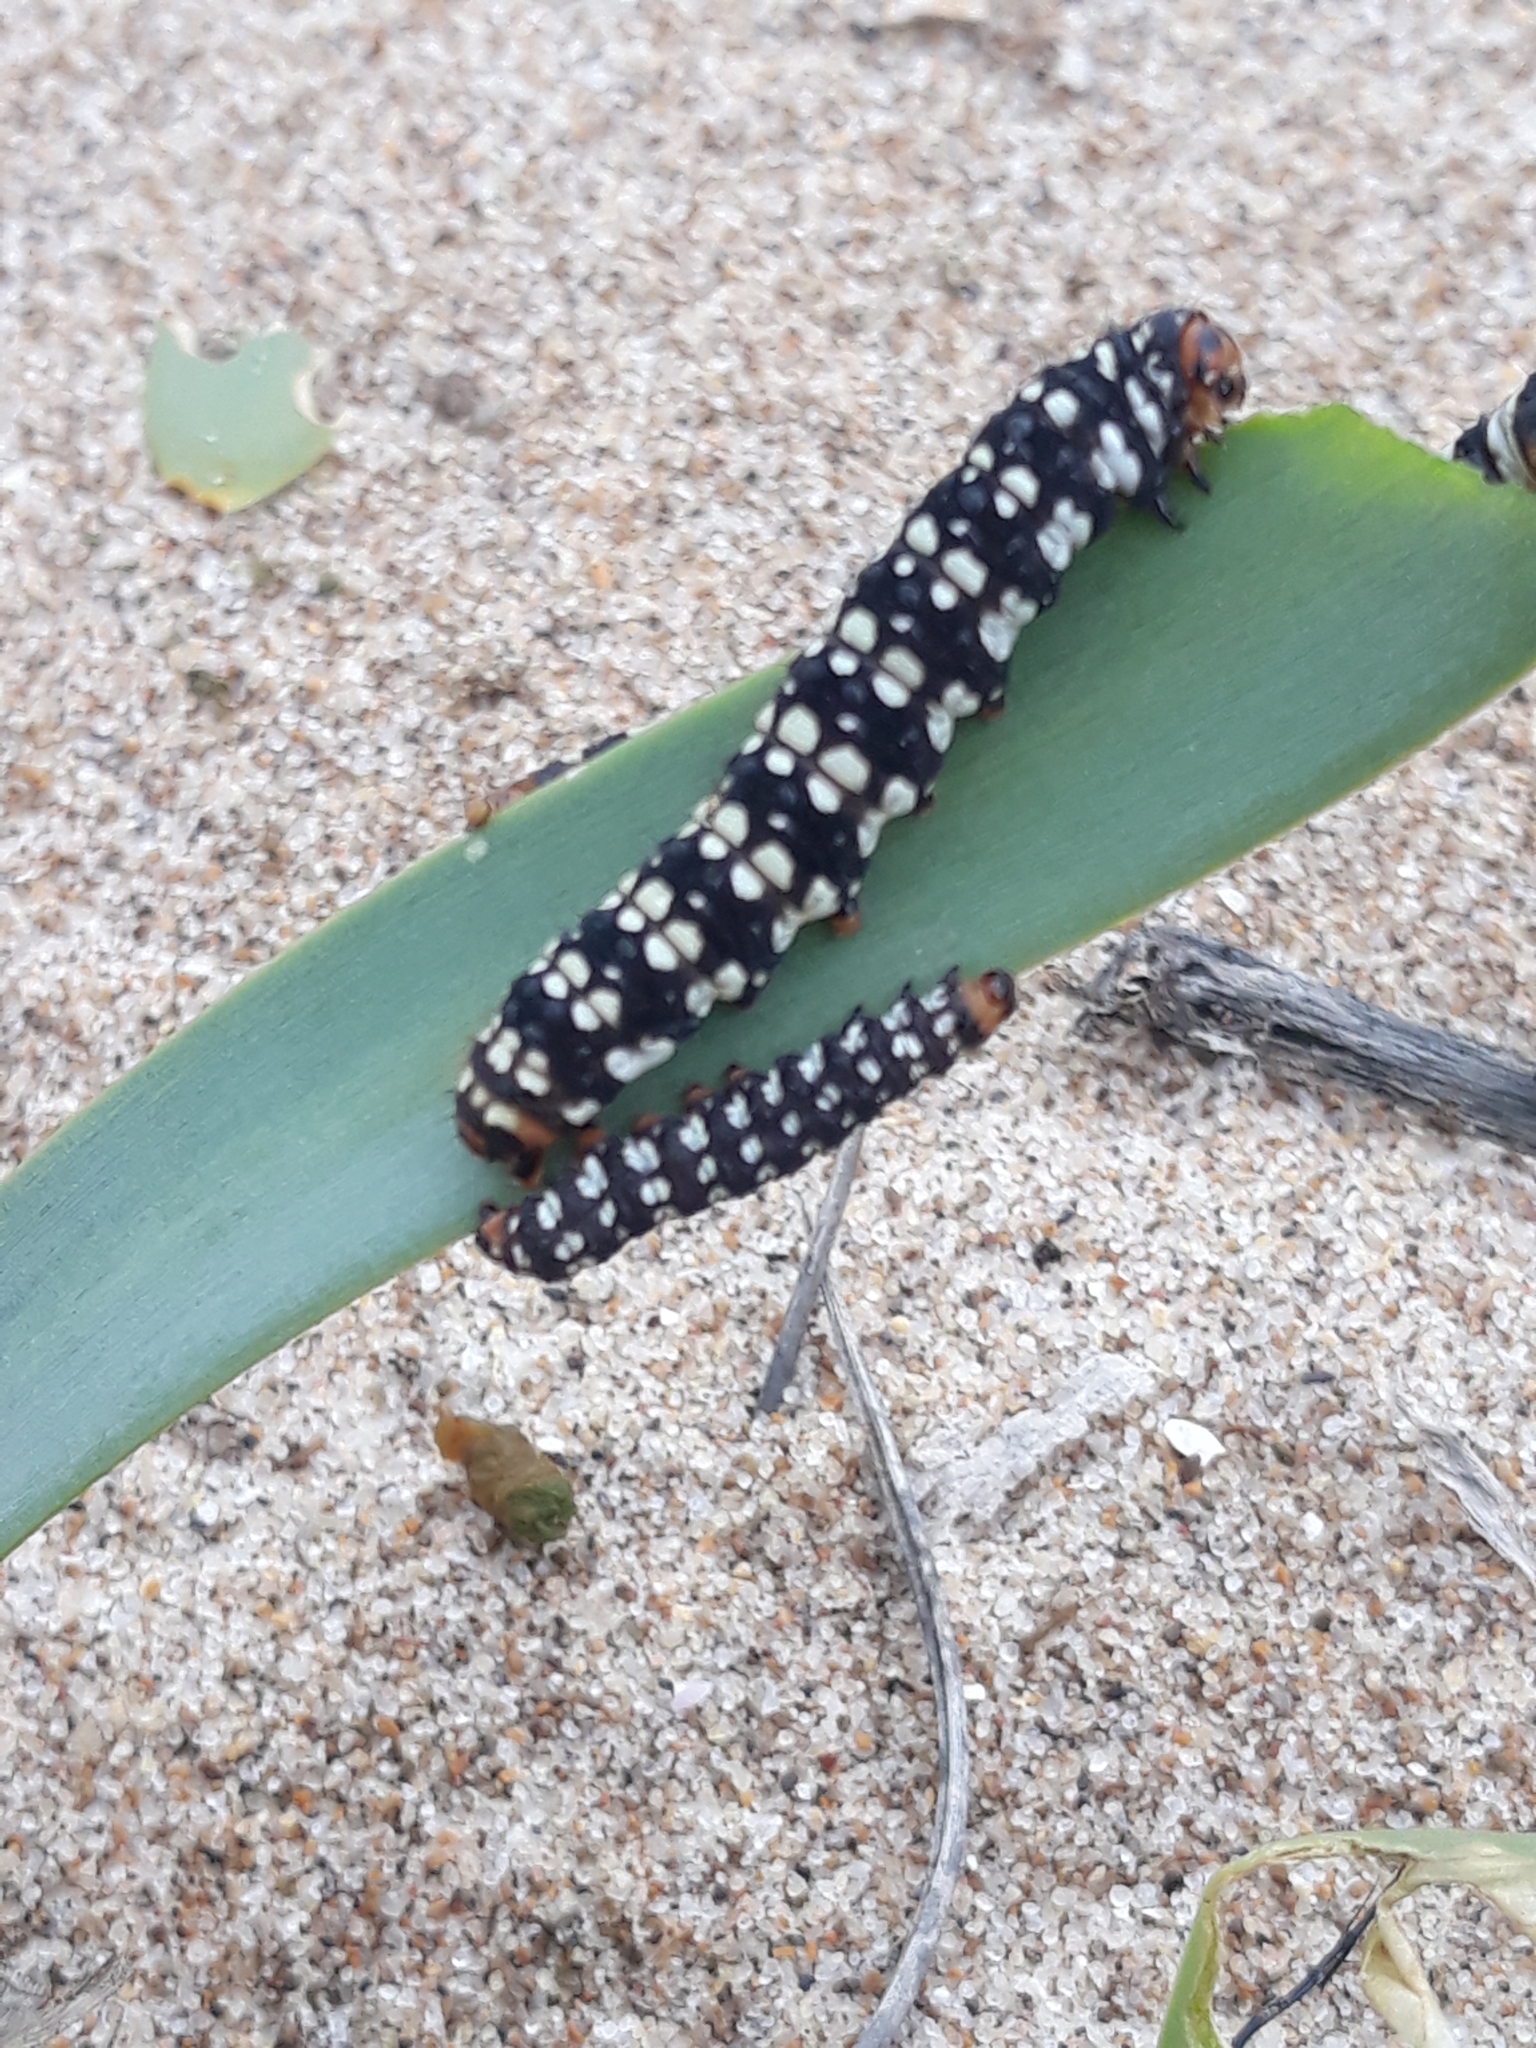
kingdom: Animalia
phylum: Arthropoda
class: Insecta
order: Lepidoptera
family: Noctuidae
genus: Brithys
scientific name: Brithys crini
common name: Kew arches
